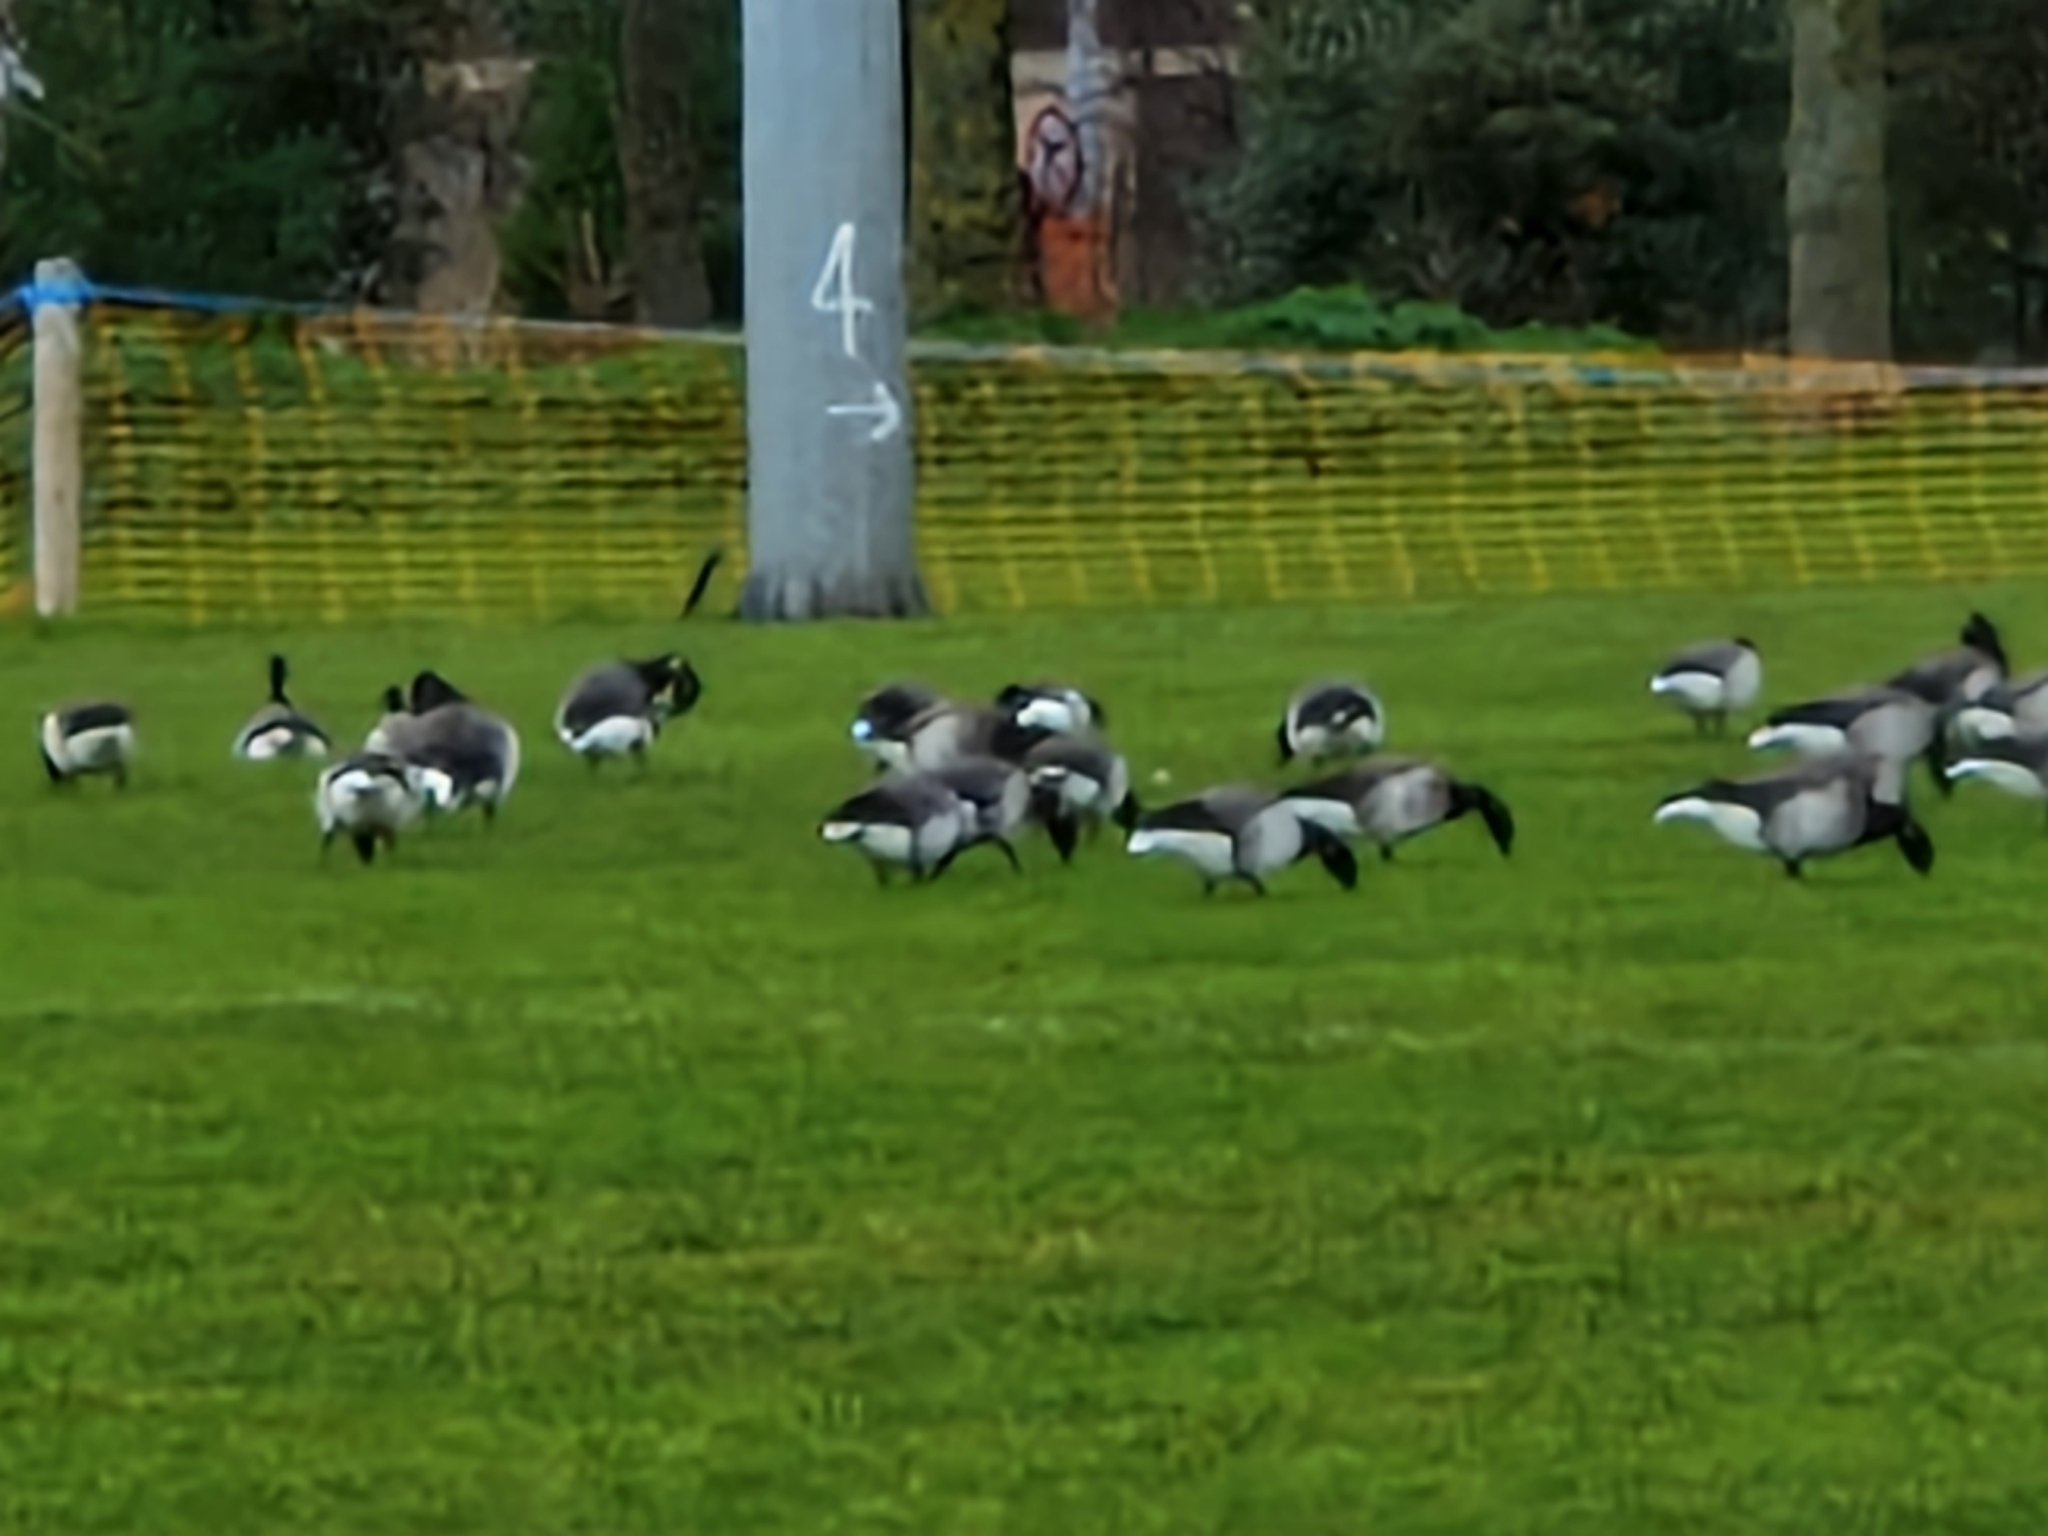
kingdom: Animalia
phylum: Chordata
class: Aves
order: Anseriformes
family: Anatidae
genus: Branta
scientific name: Branta bernicla
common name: Brant goose
